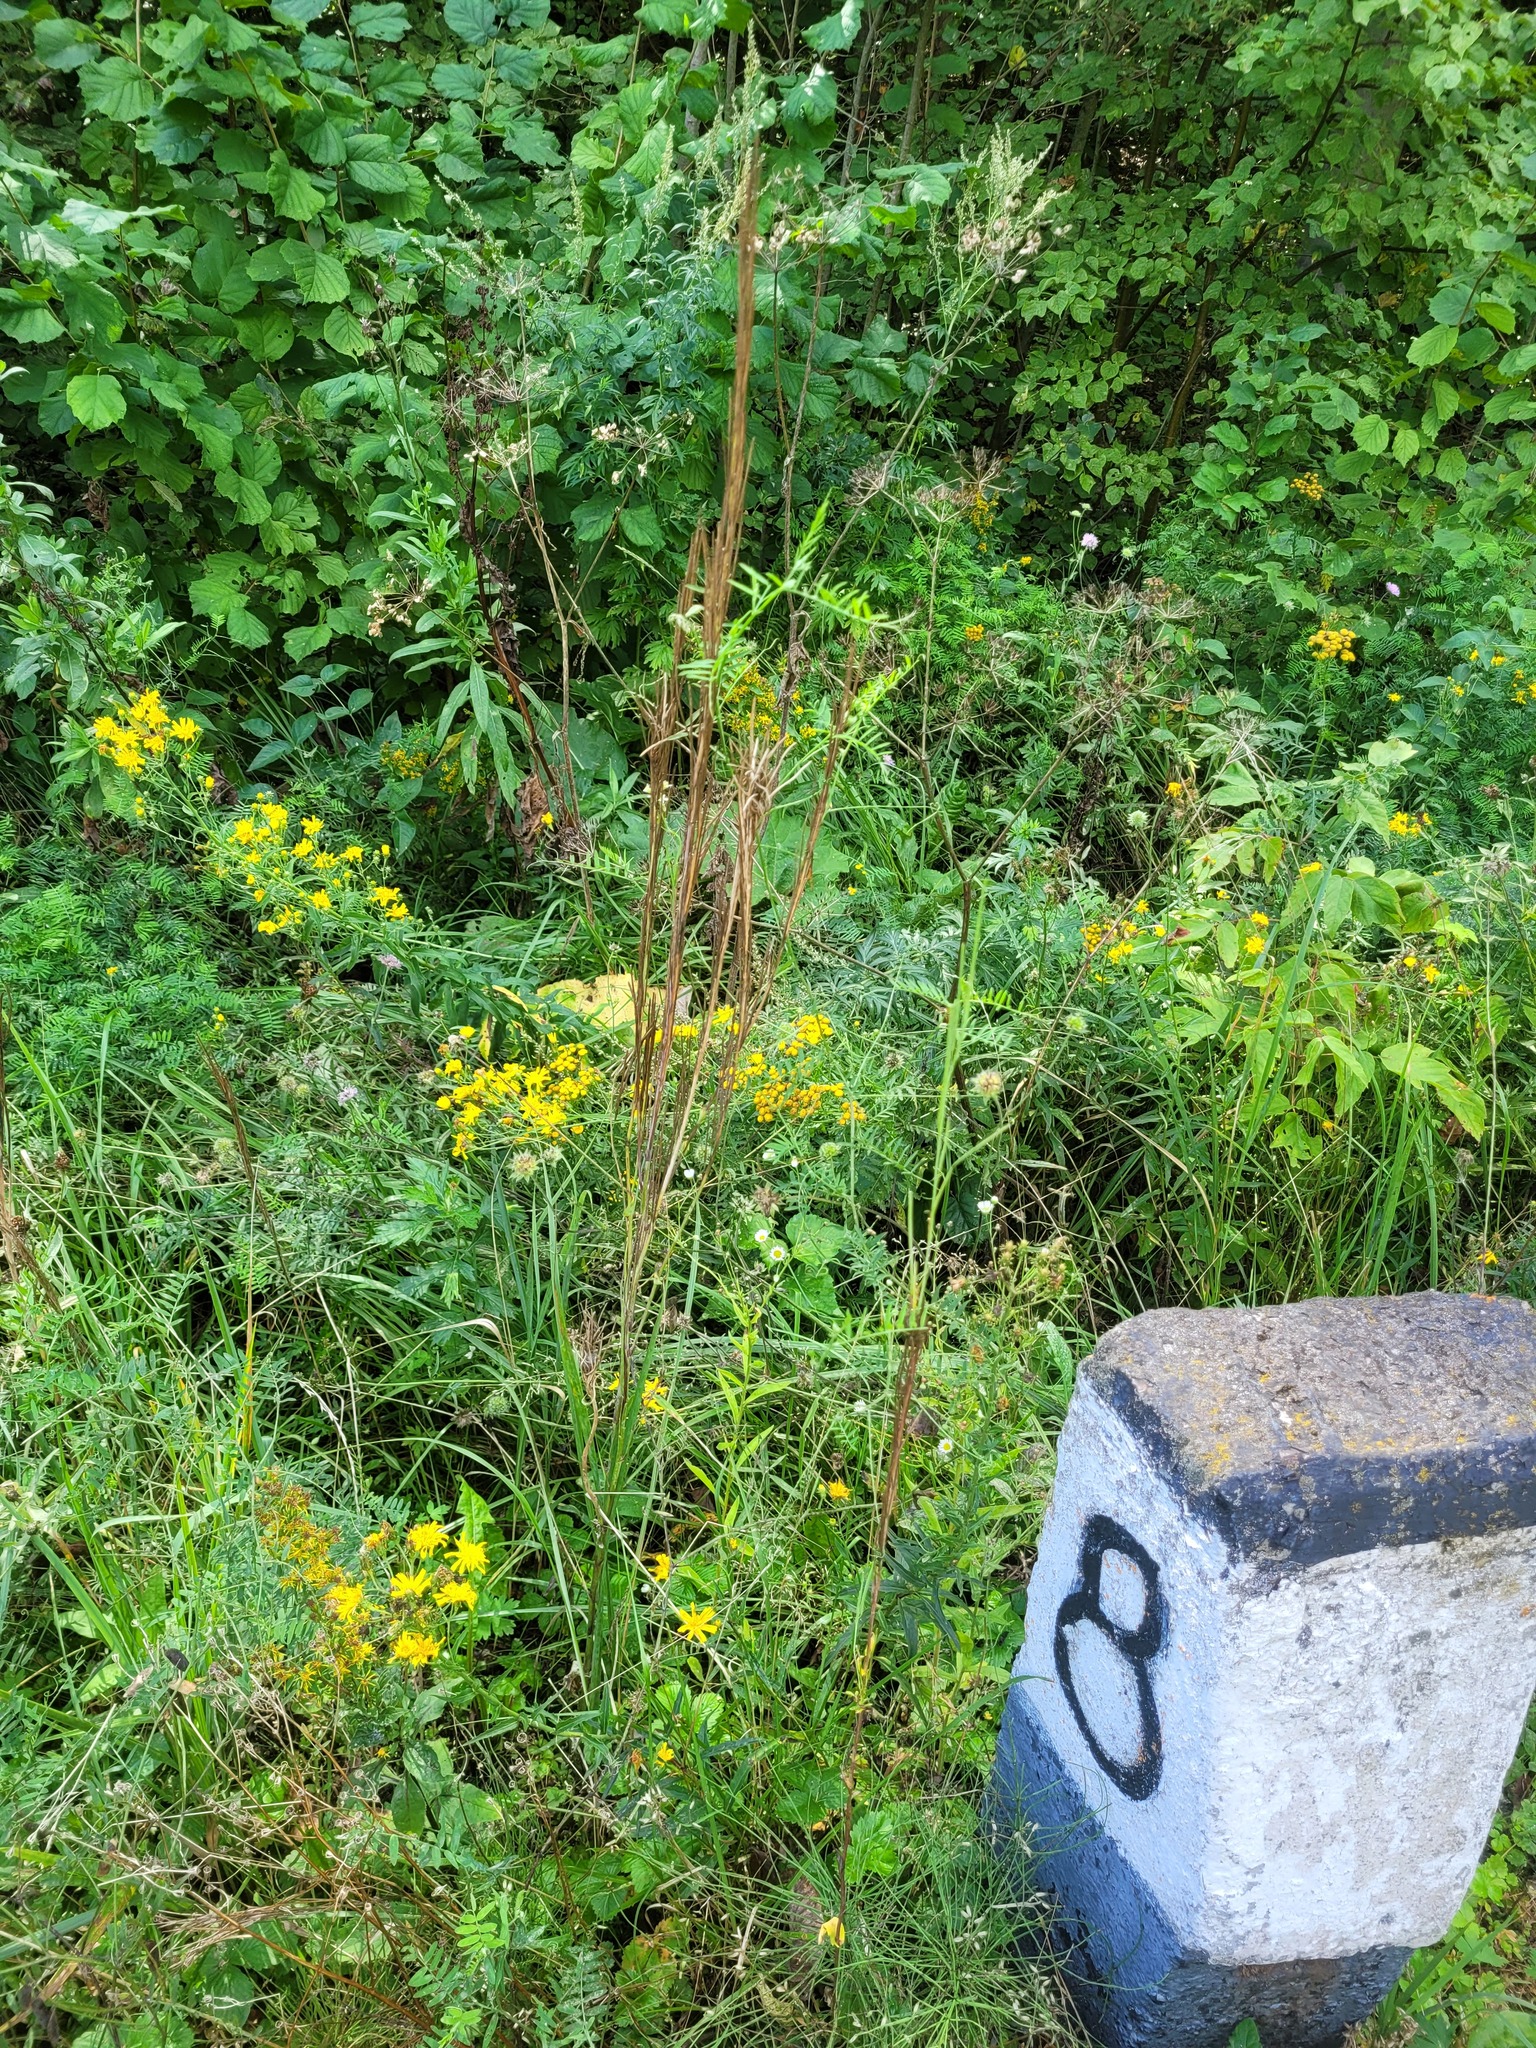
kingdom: Plantae
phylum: Tracheophyta
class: Magnoliopsida
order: Brassicales
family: Brassicaceae
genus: Turritis
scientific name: Turritis glabra
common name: Tower rockcress
